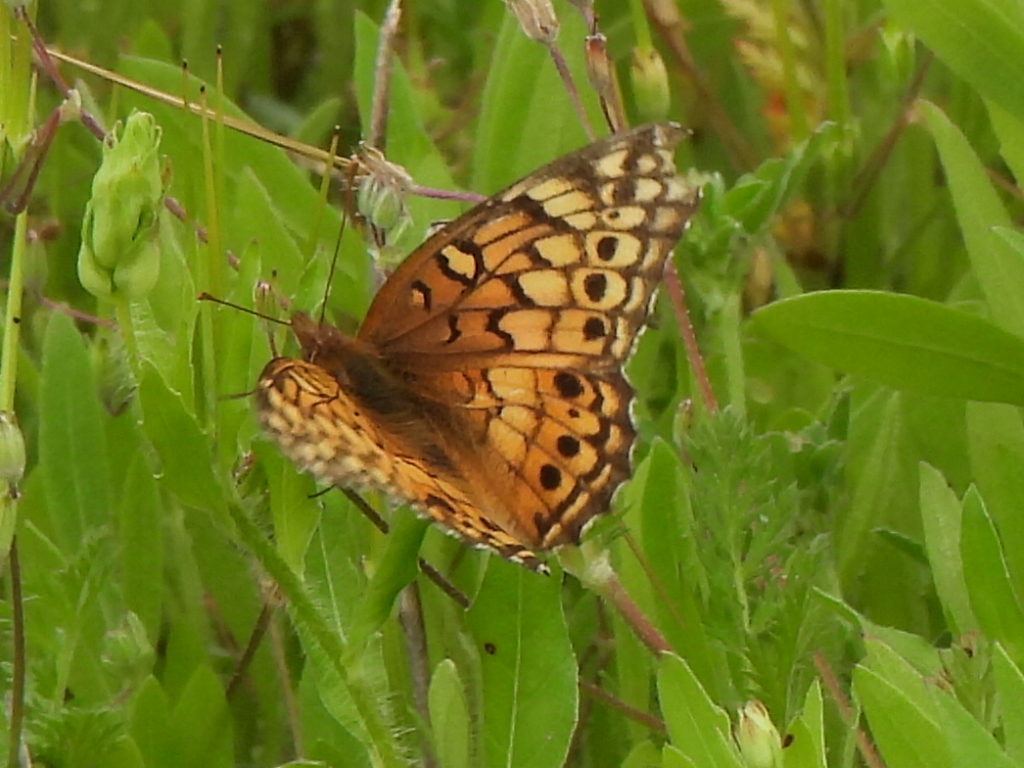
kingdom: Animalia
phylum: Arthropoda
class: Insecta
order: Lepidoptera
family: Nymphalidae
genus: Euptoieta
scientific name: Euptoieta claudia
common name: Variegated fritillary
